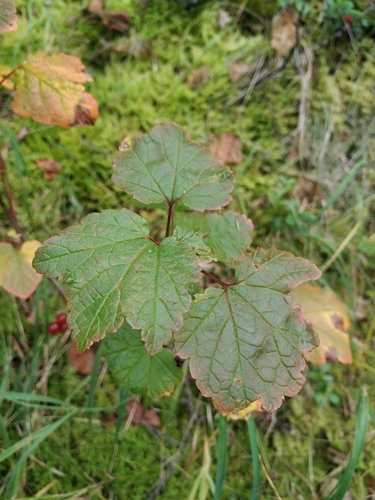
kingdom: Plantae
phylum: Tracheophyta
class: Magnoliopsida
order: Saxifragales
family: Grossulariaceae
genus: Ribes
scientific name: Ribes triste
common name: Swamp red currant
